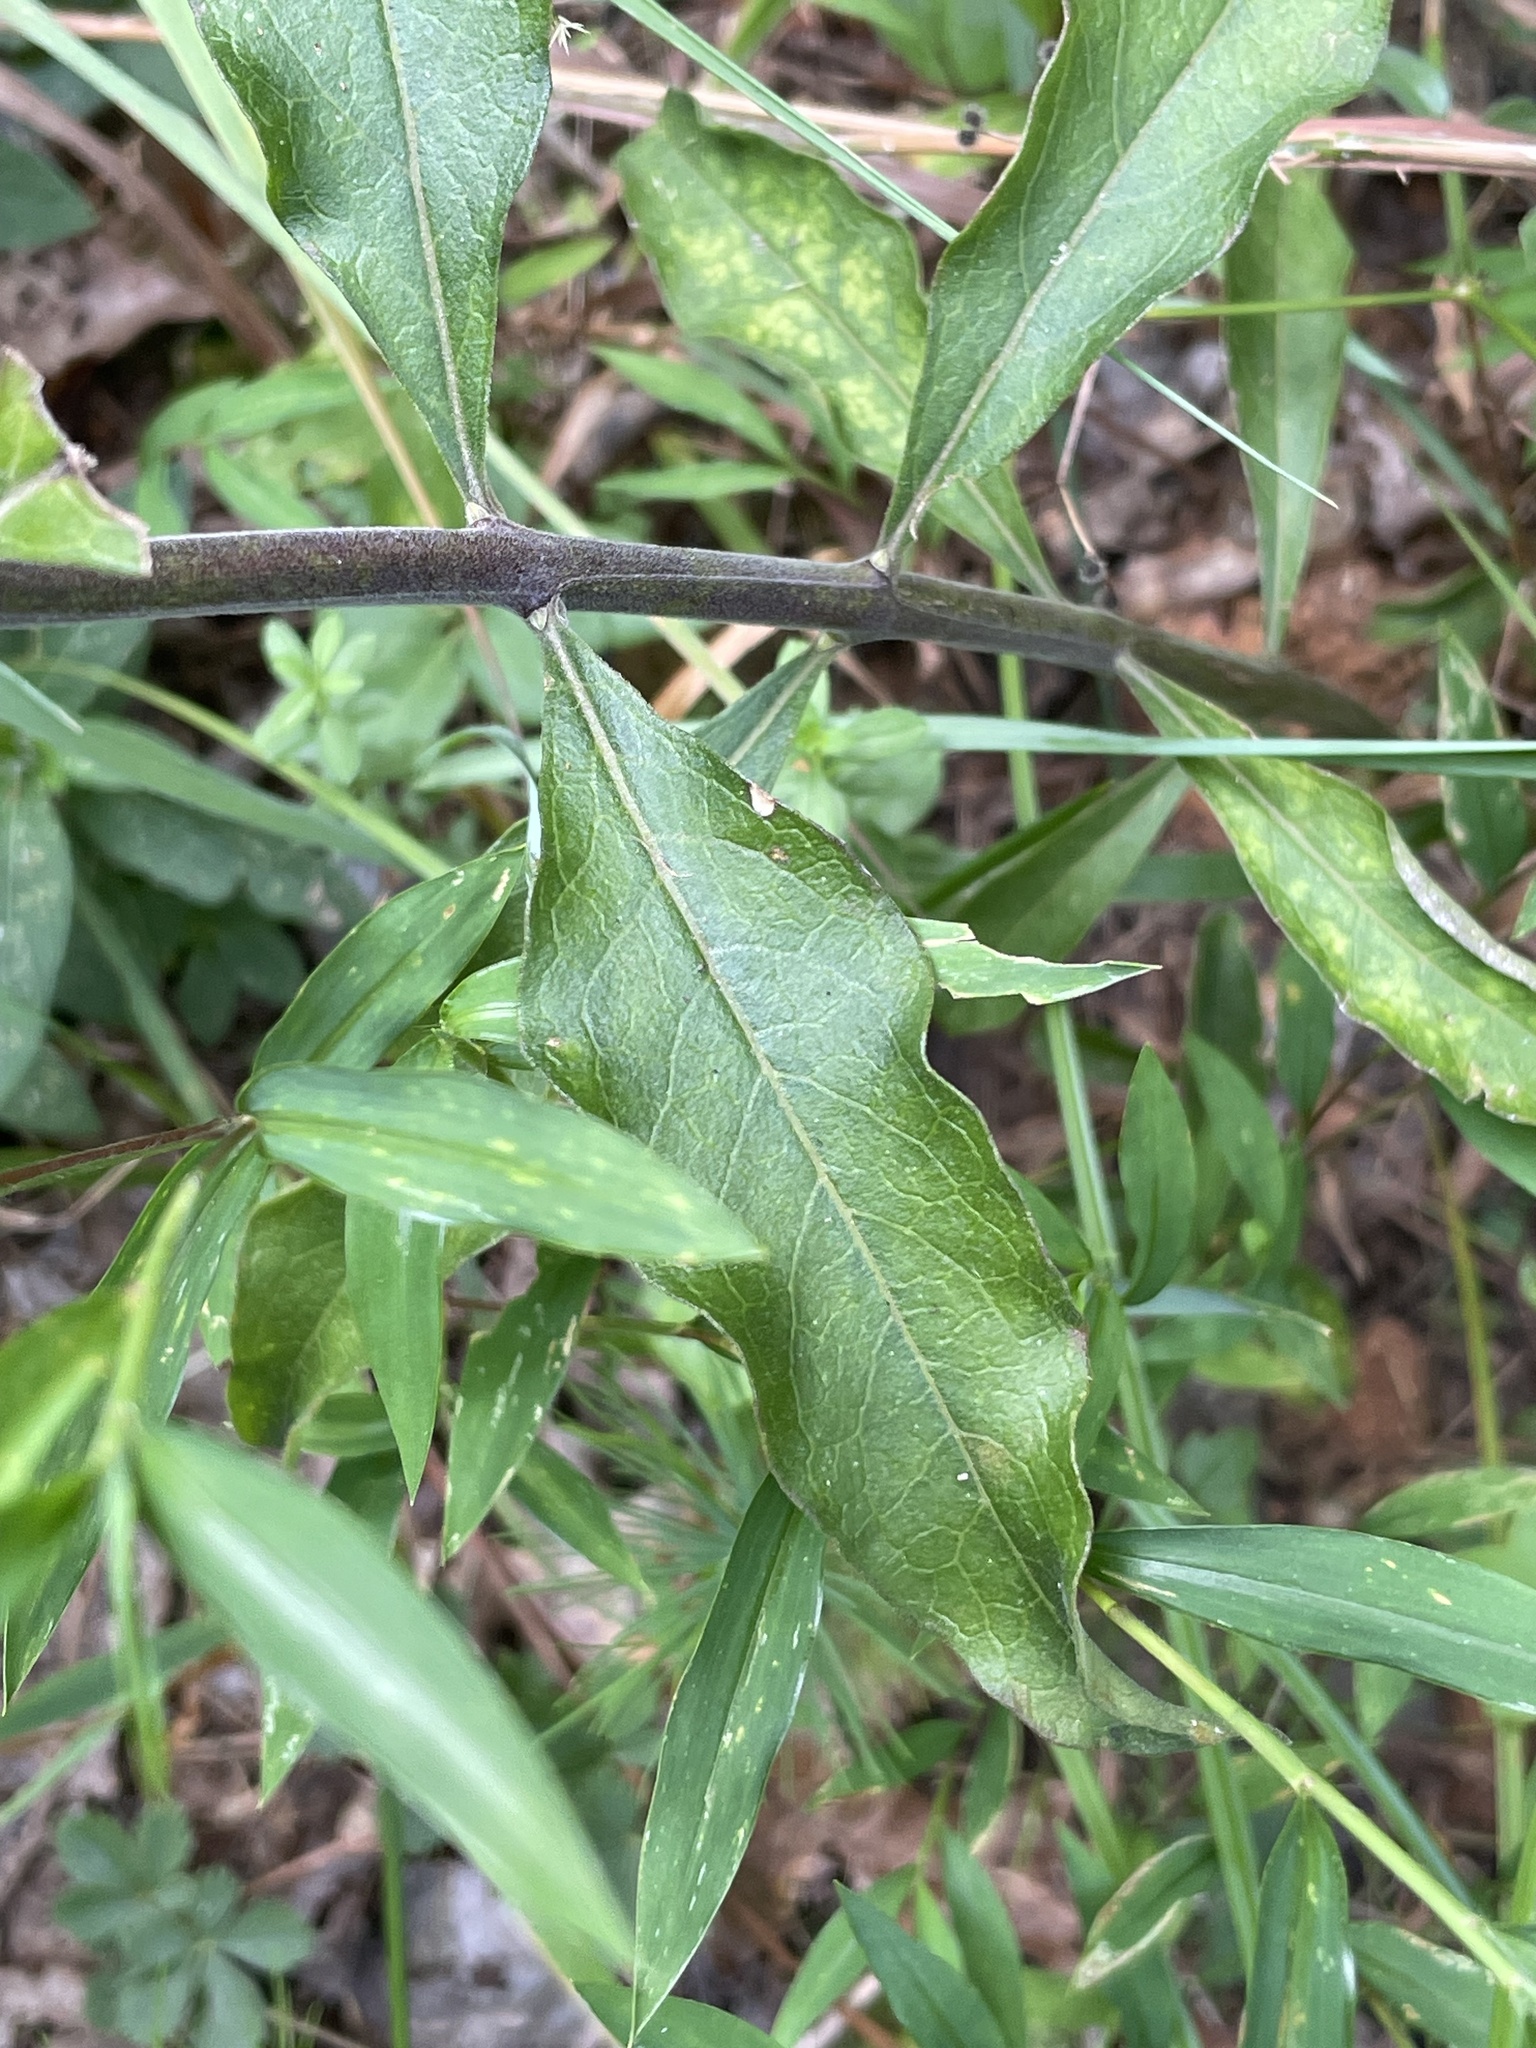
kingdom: Plantae
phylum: Tracheophyta
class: Magnoliopsida
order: Lamiales
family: Orobanchaceae
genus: Aureolaria
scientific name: Aureolaria virginica
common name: Downy false foxglove
